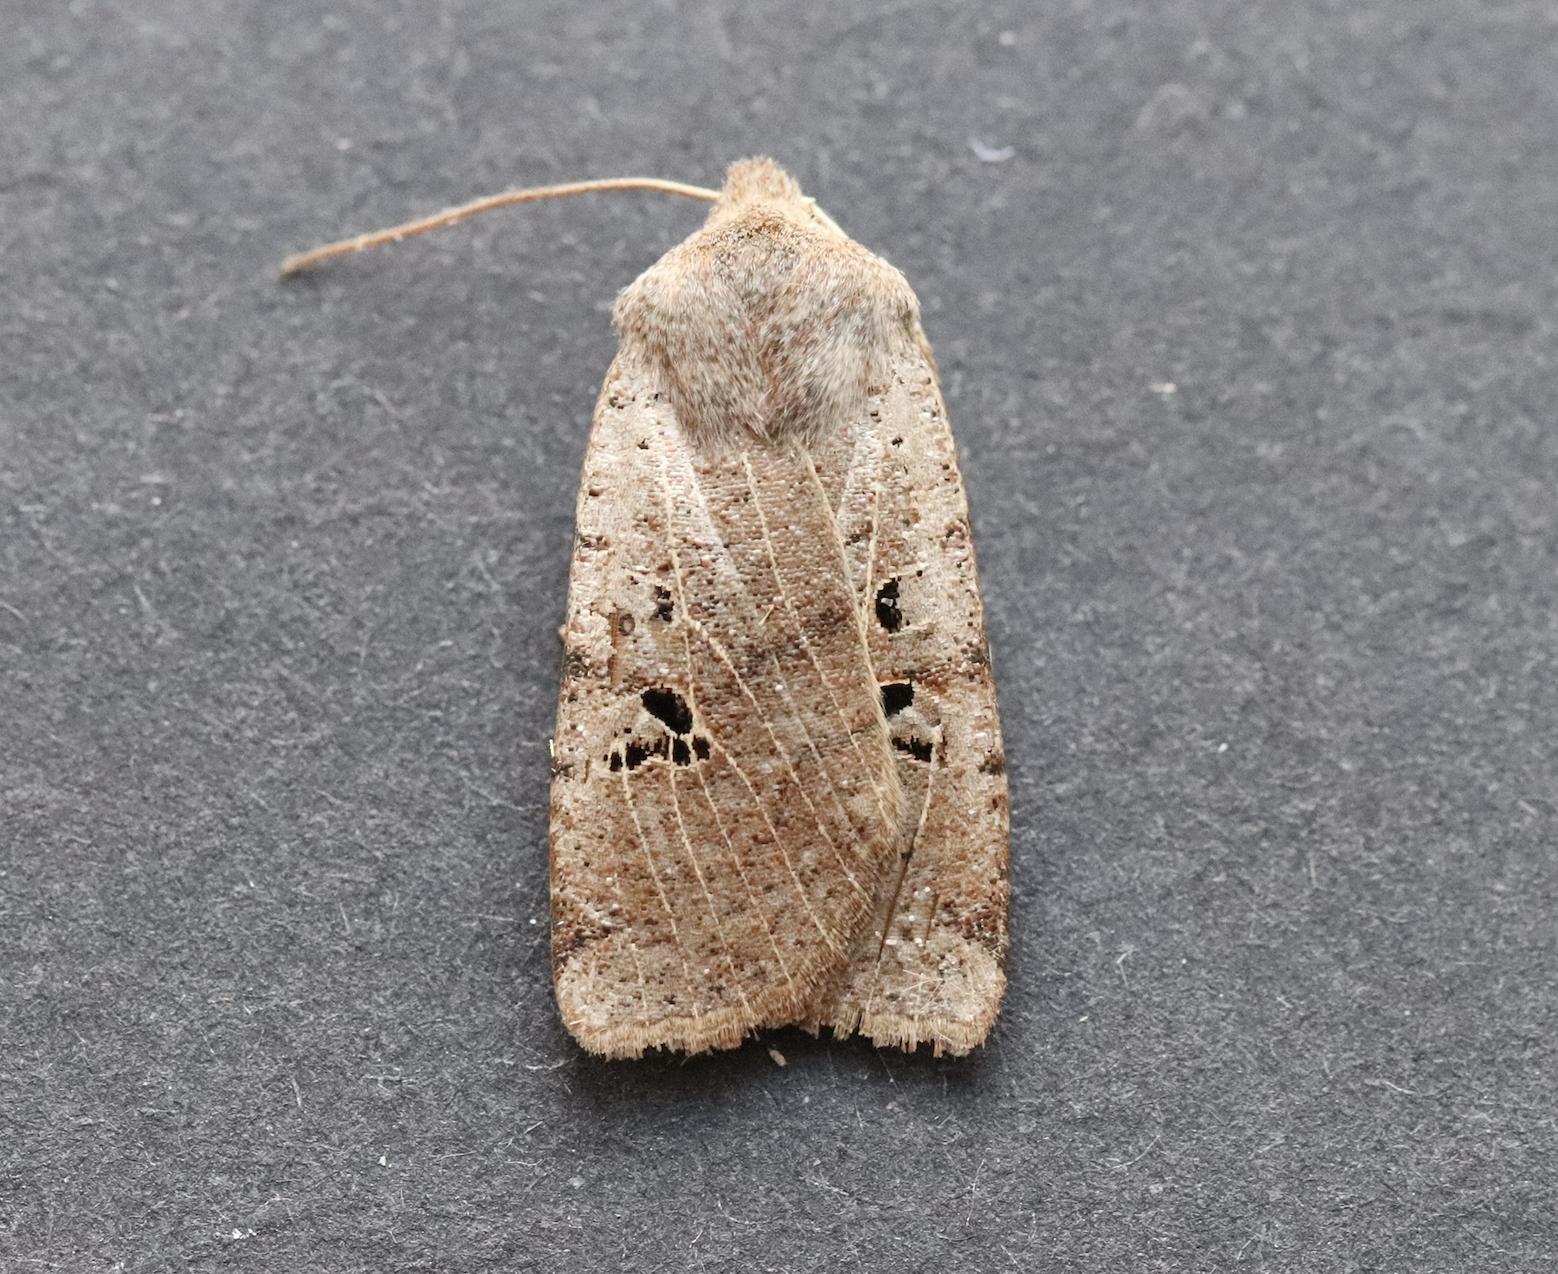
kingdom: Animalia
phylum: Arthropoda
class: Insecta
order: Lepidoptera
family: Noctuidae
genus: Conistra
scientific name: Conistra rubiginosa
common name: Black-spotted chestnut
